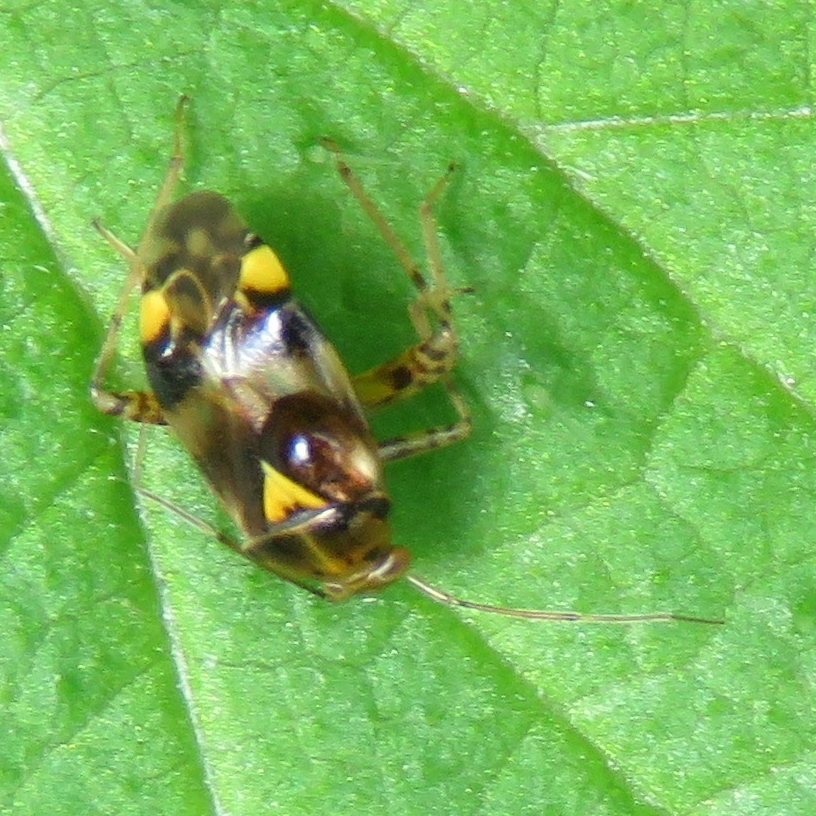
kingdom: Animalia
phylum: Arthropoda
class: Insecta
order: Hemiptera
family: Miridae
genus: Liocoris
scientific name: Liocoris tripustulatus
